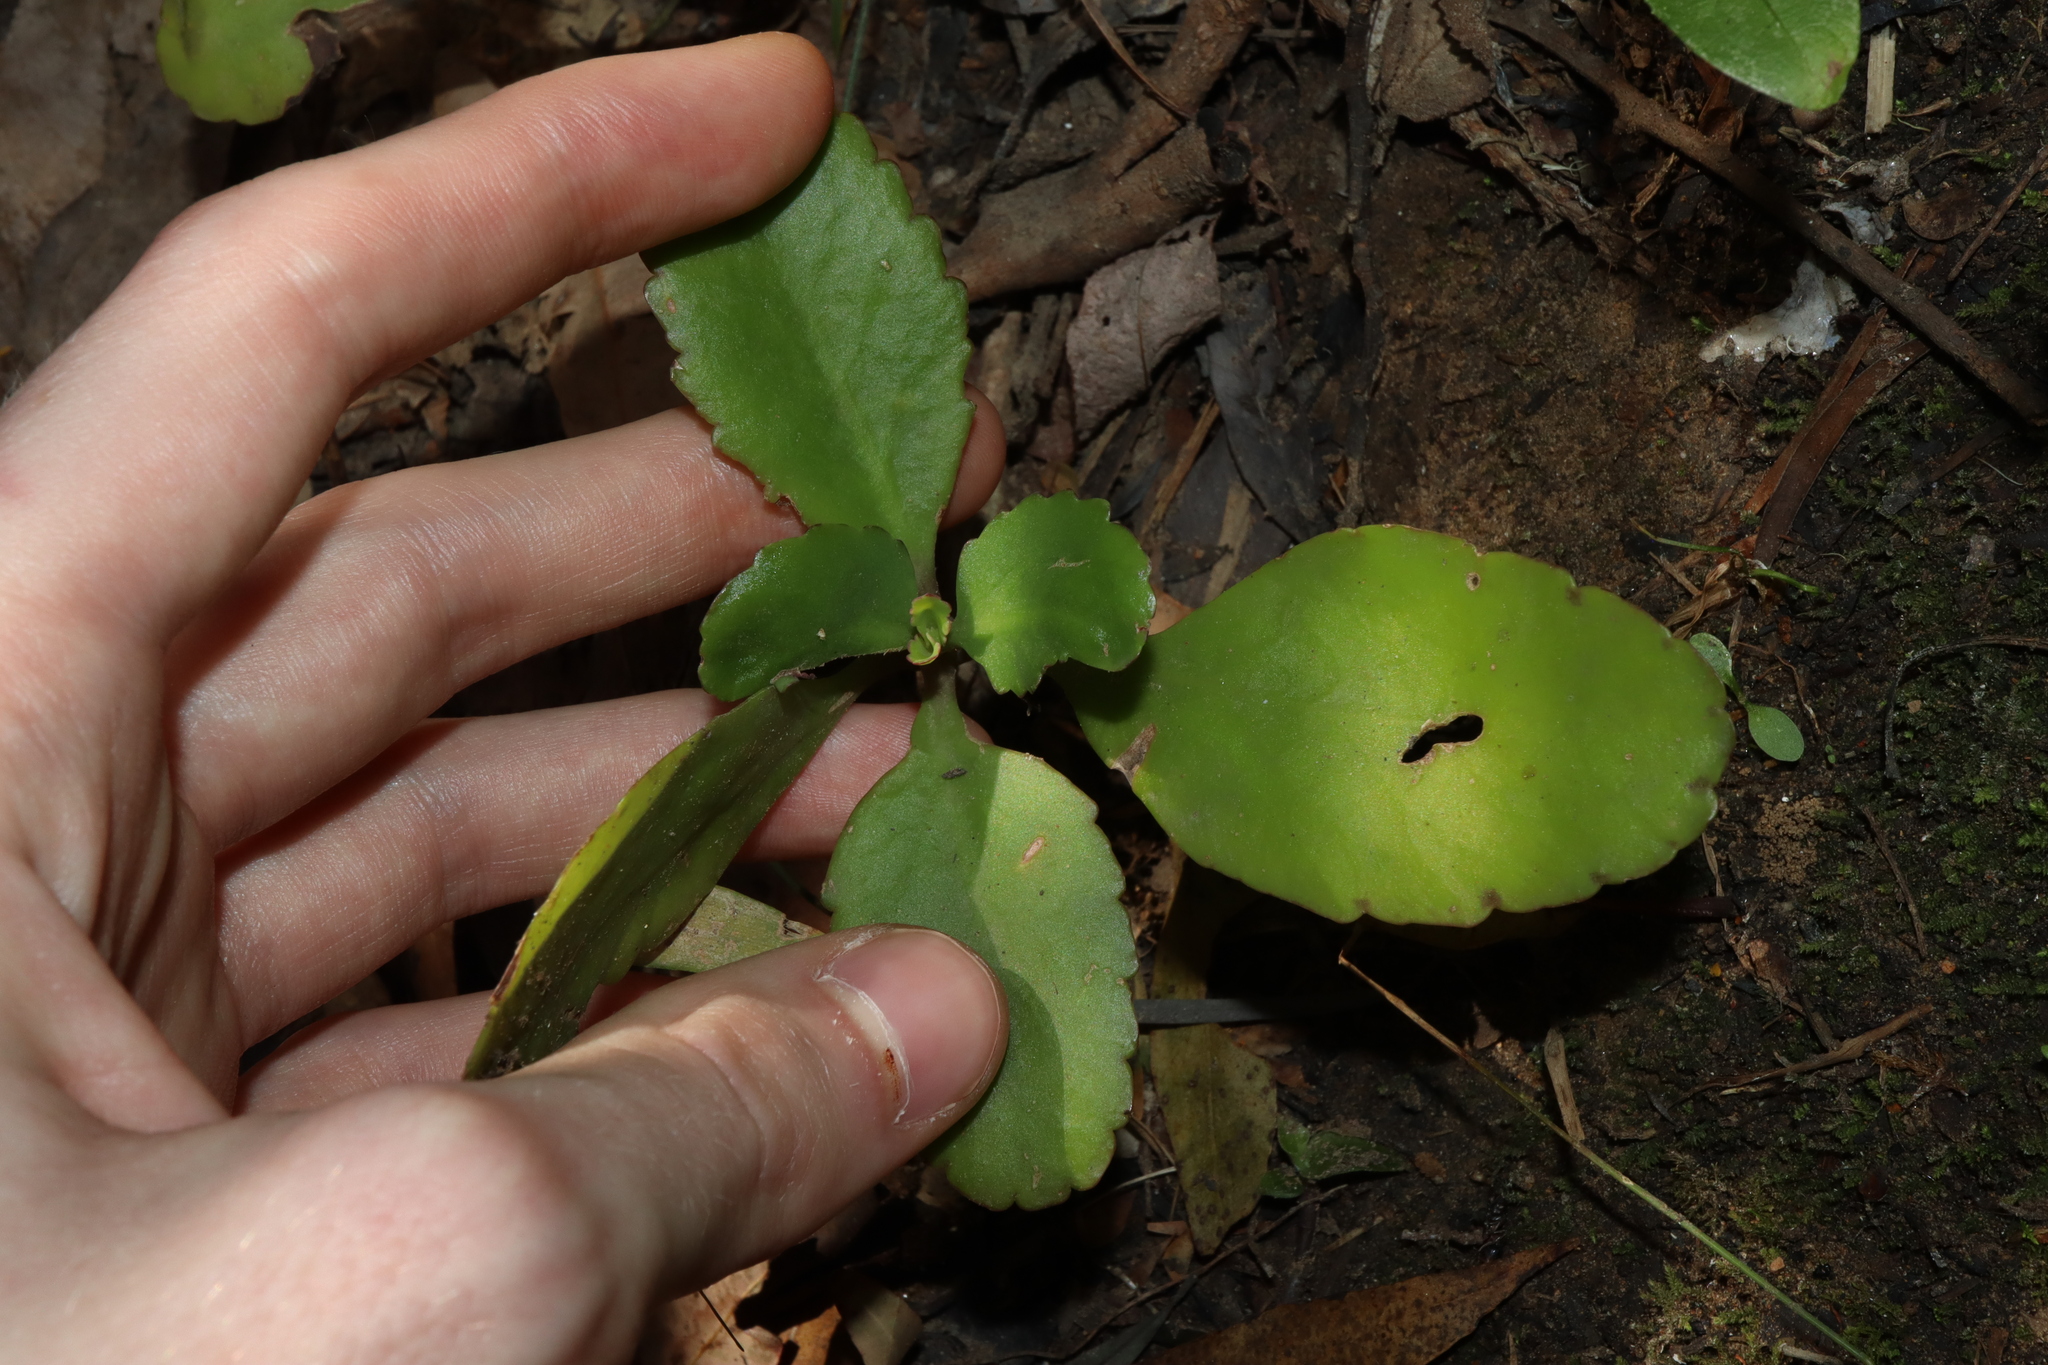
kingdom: Plantae
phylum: Tracheophyta
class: Magnoliopsida
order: Saxifragales
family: Crassulaceae
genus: Kalanchoe
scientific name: Kalanchoe pinnata
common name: Cathedral bells
